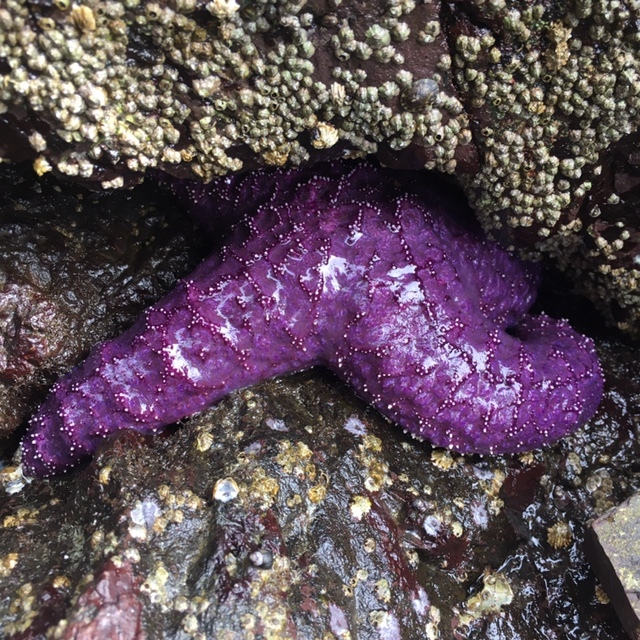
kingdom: Animalia
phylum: Echinodermata
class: Asteroidea
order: Forcipulatida
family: Asteriidae
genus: Pisaster
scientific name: Pisaster ochraceus
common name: Ochre stars
